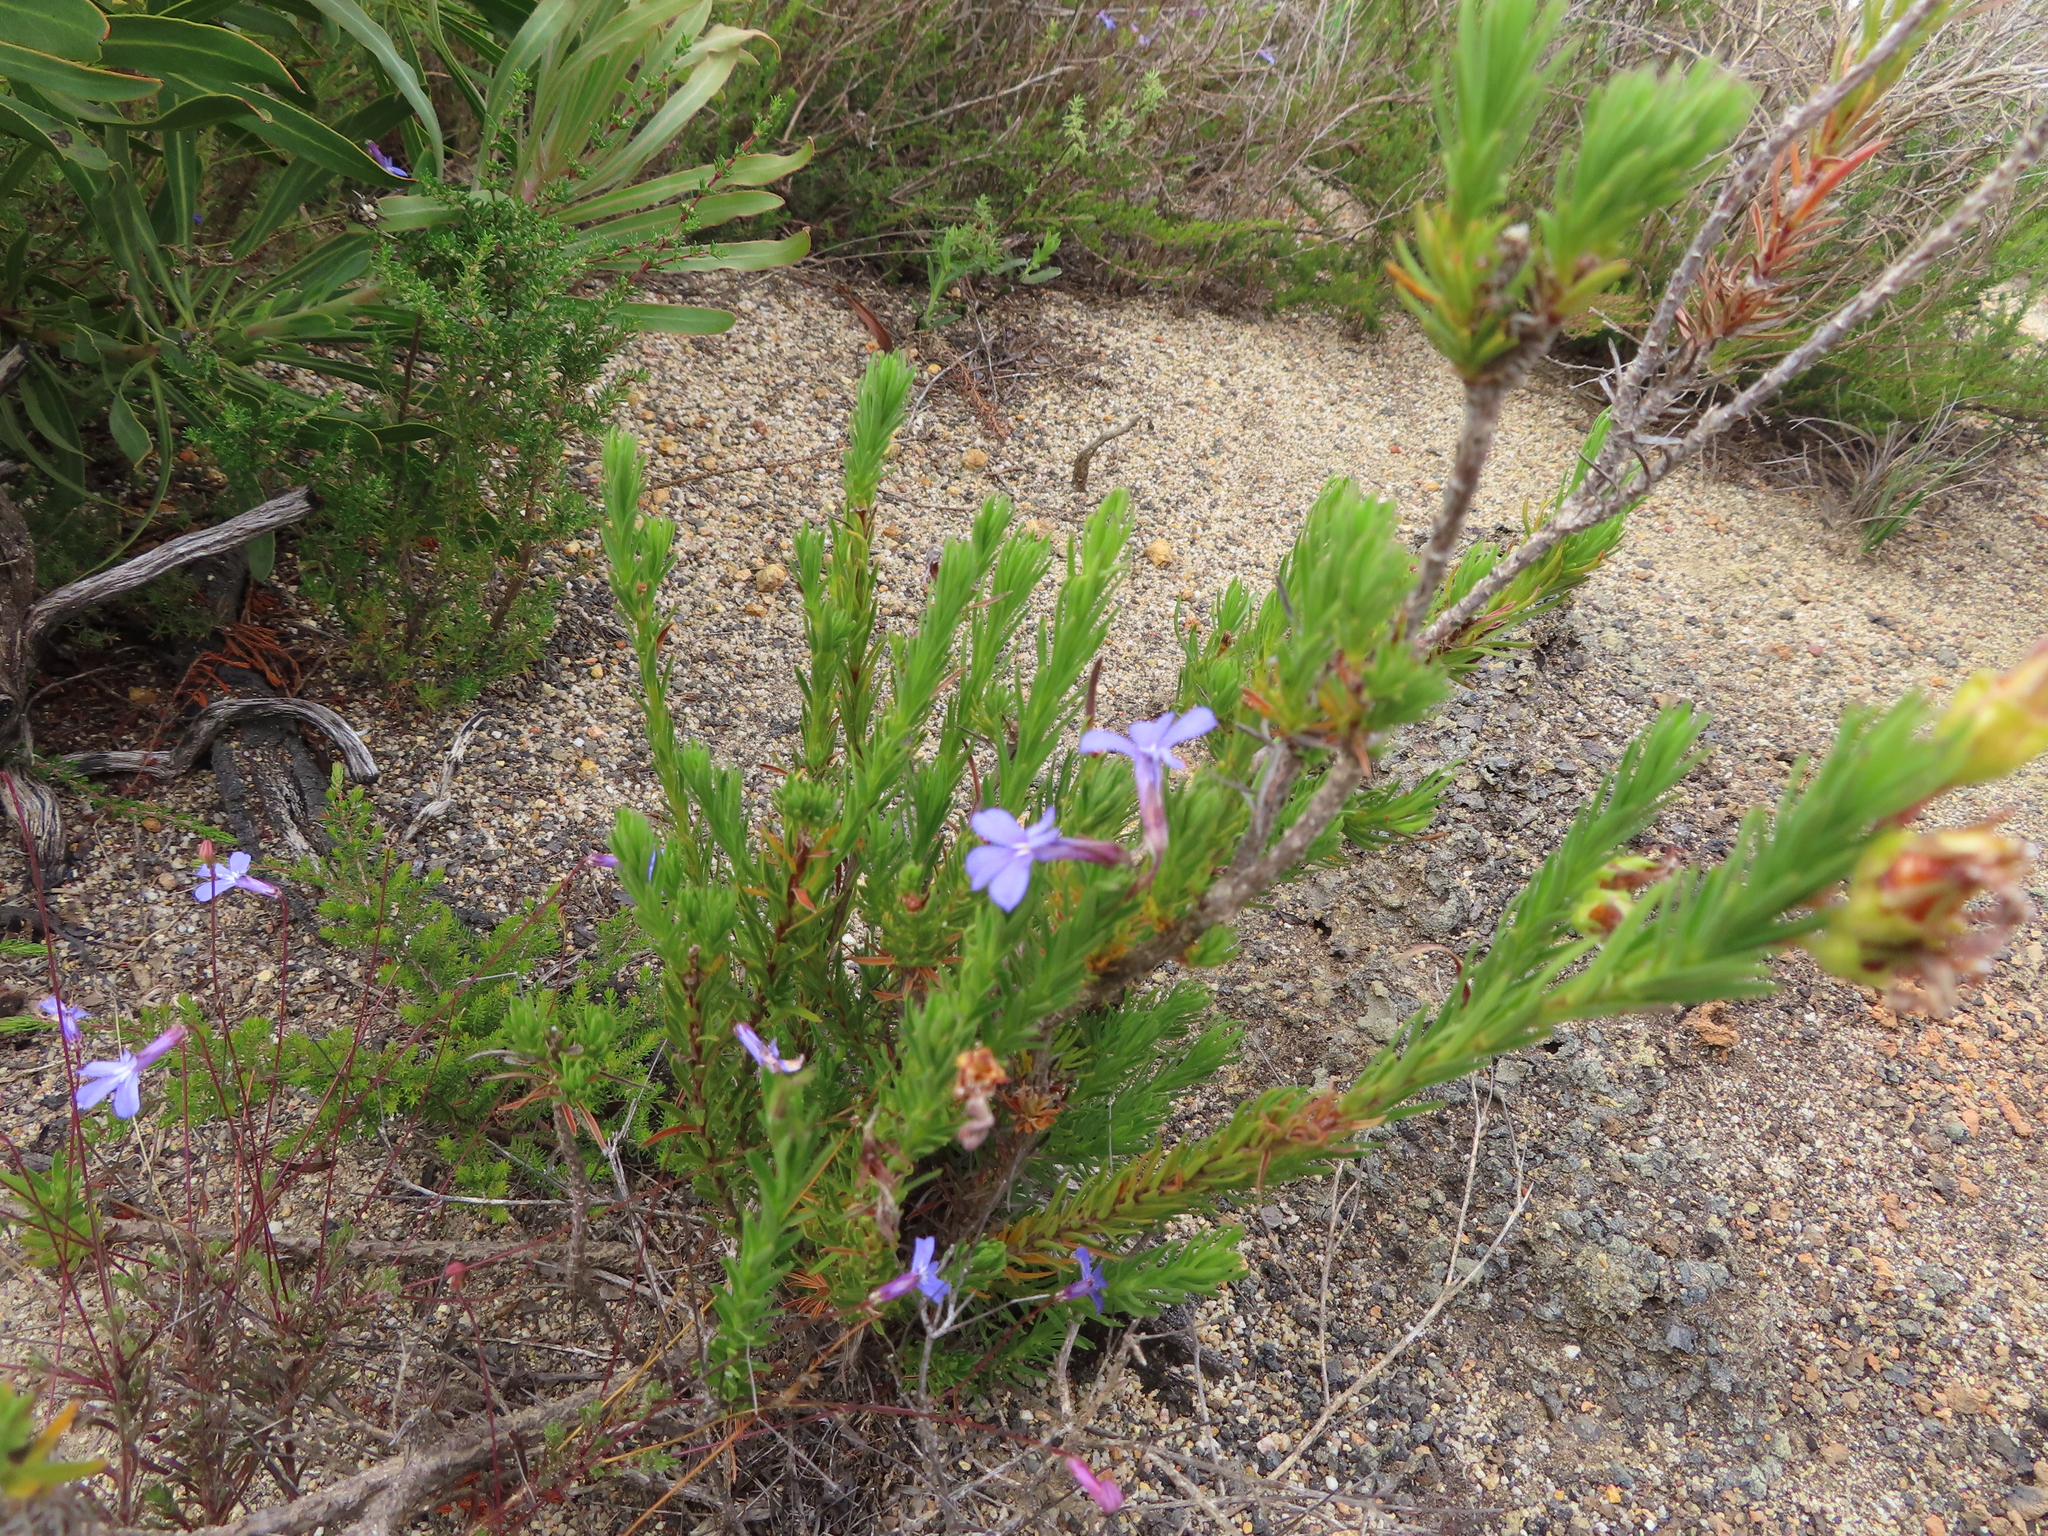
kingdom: Plantae
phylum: Tracheophyta
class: Magnoliopsida
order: Asterales
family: Campanulaceae
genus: Lobelia
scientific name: Lobelia pinifolia
